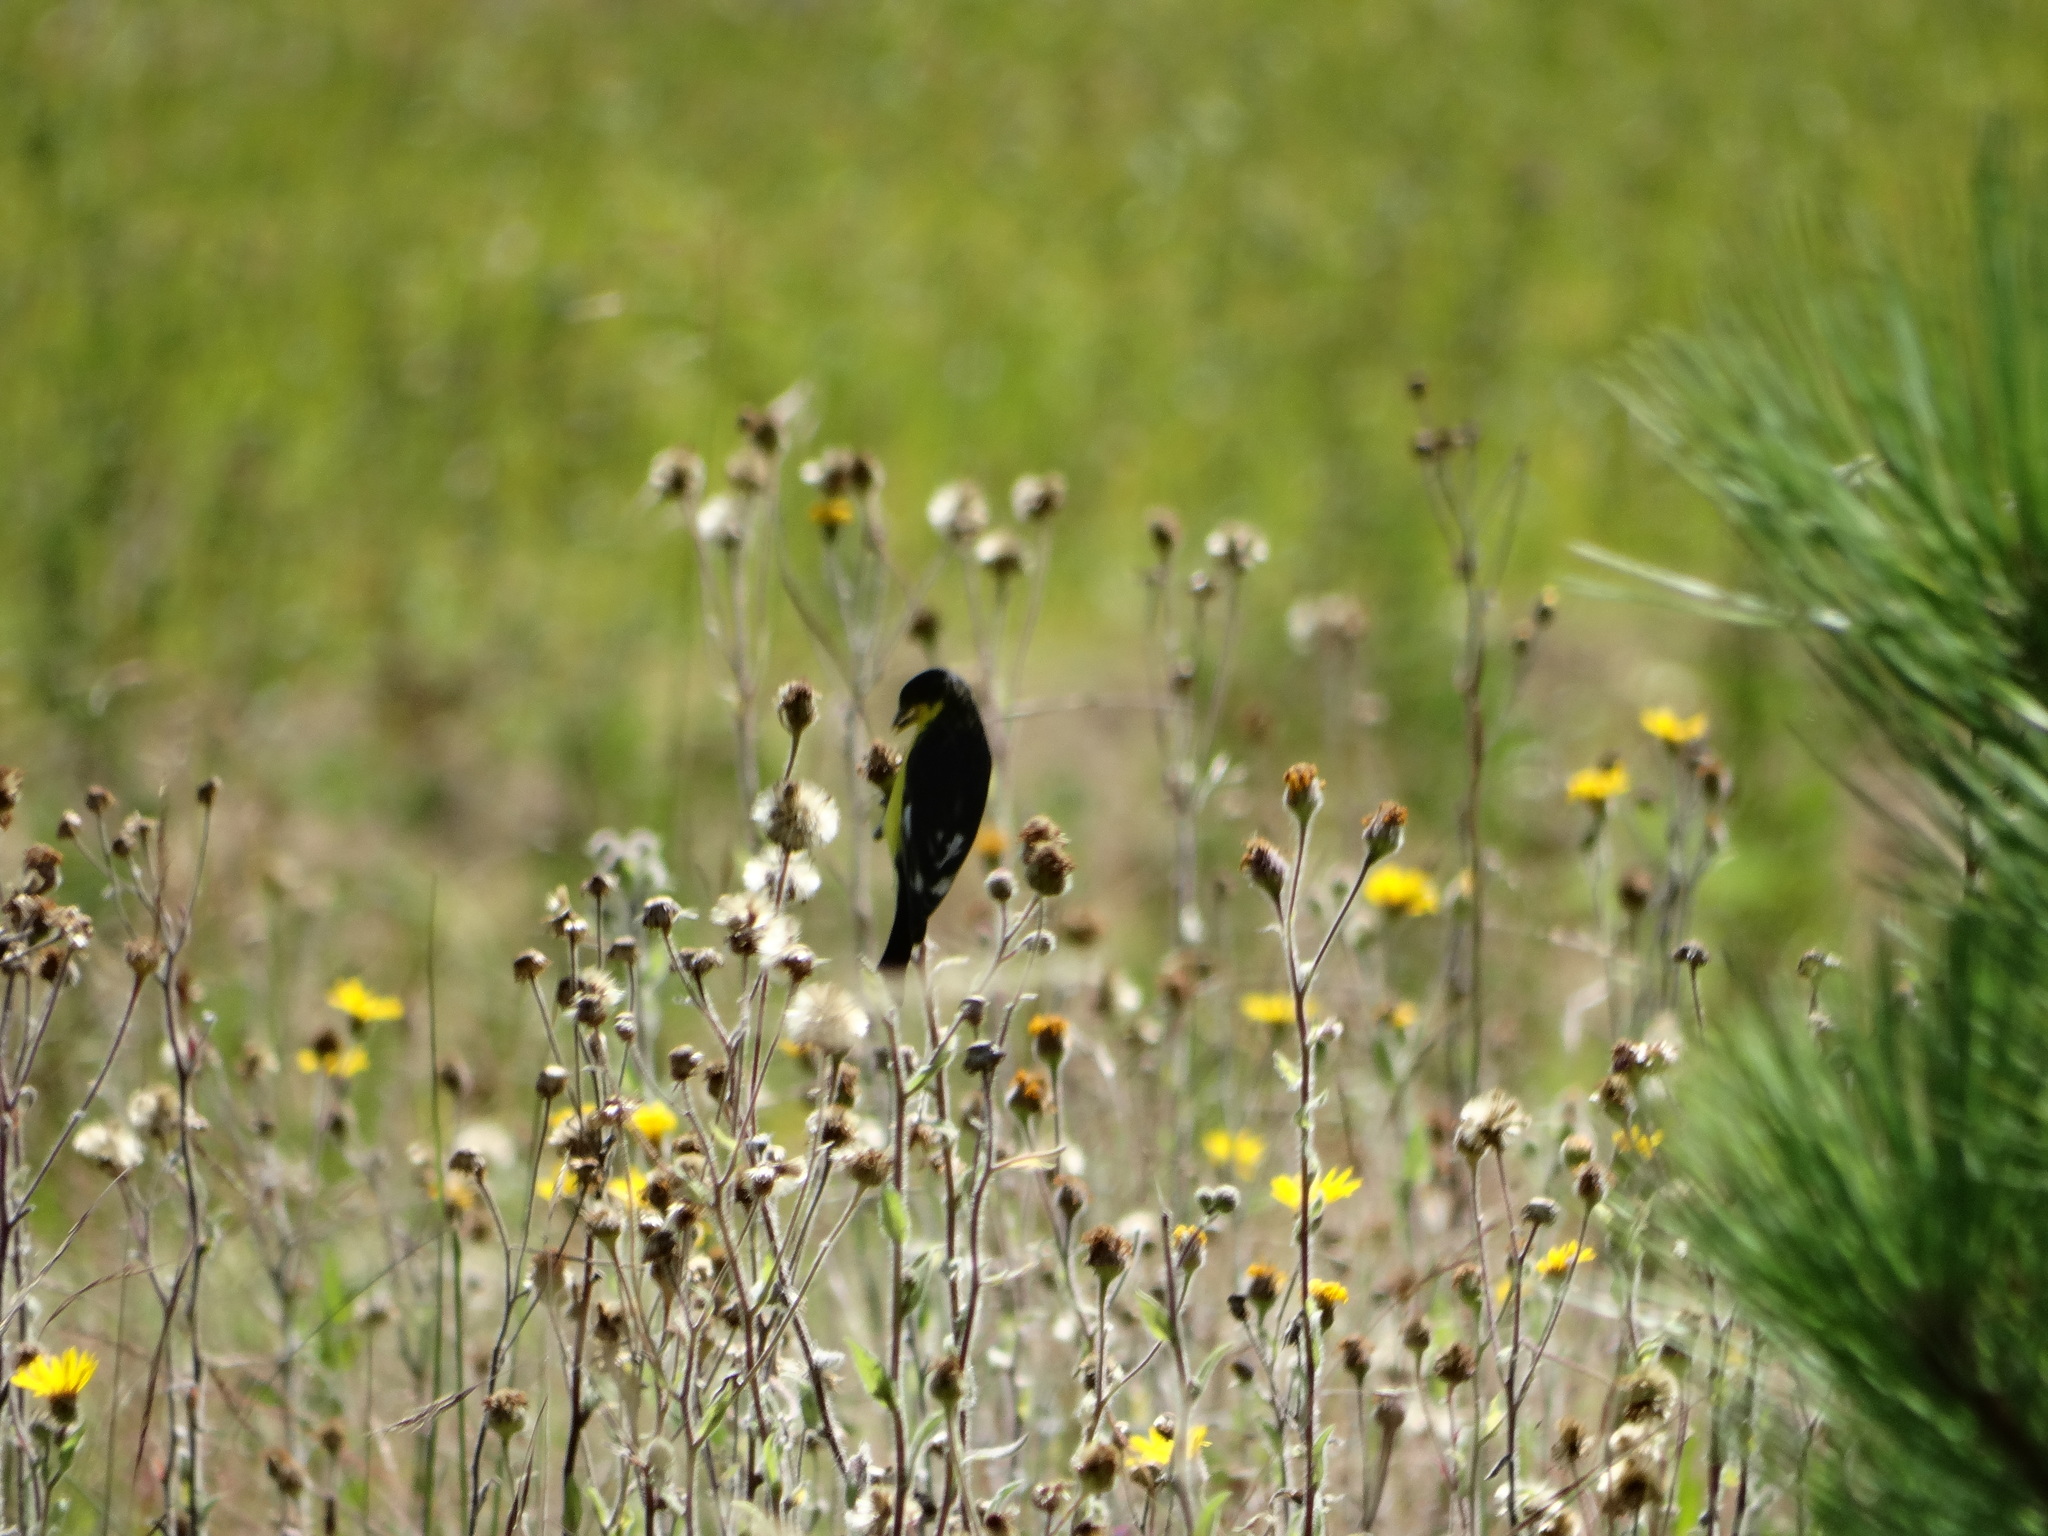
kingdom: Animalia
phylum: Chordata
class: Aves
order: Passeriformes
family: Fringillidae
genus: Spinus
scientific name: Spinus psaltria
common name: Lesser goldfinch
